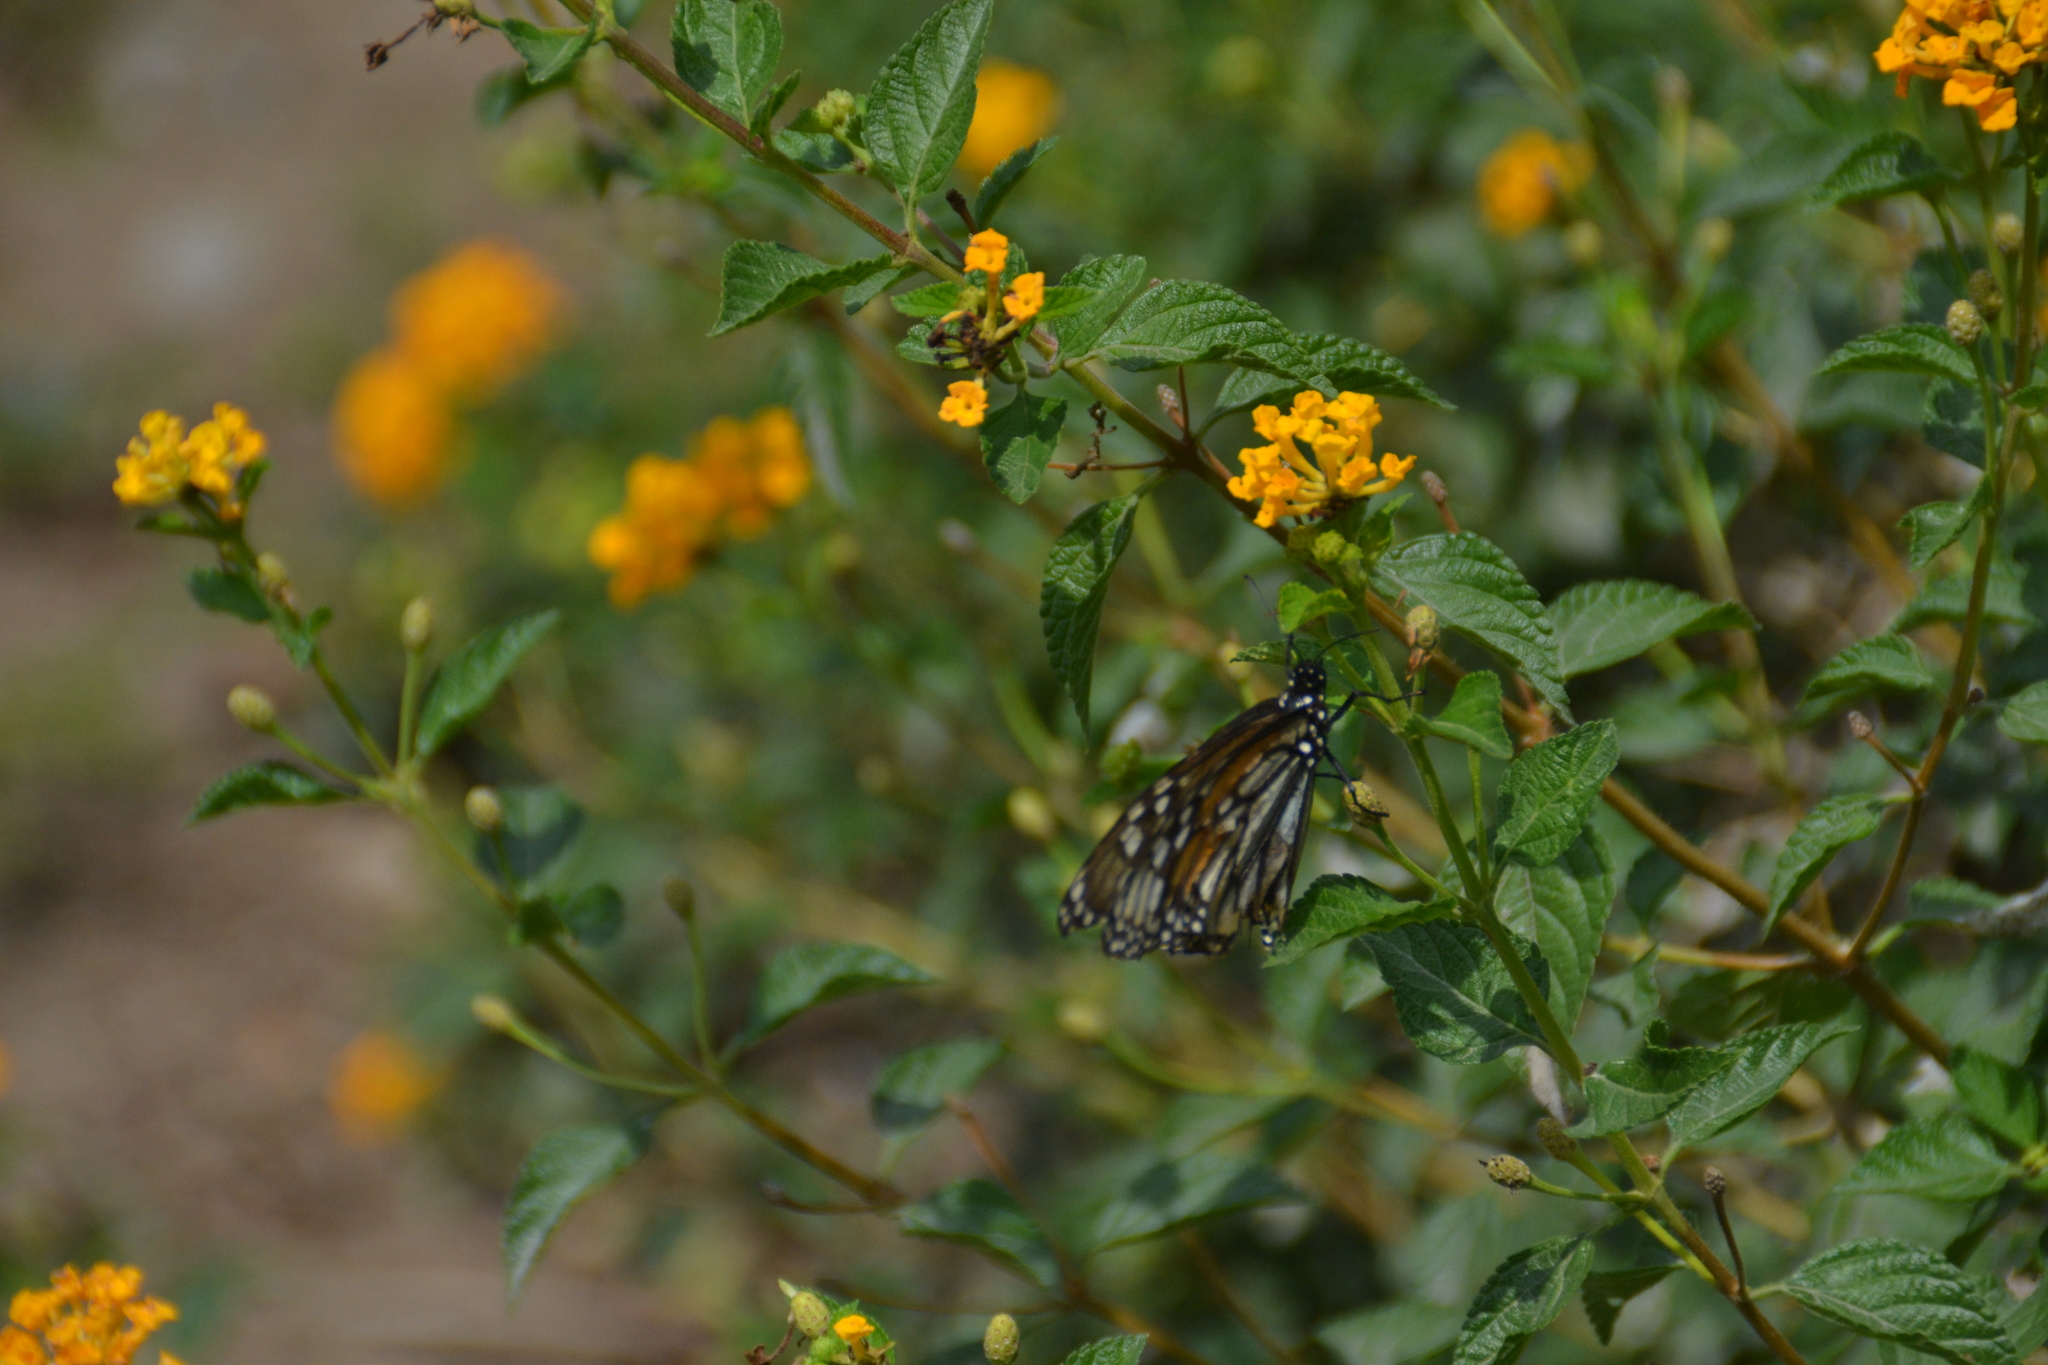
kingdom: Animalia
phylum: Arthropoda
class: Insecta
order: Lepidoptera
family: Nymphalidae
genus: Danaus
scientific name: Danaus plexippus
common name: Monarch
